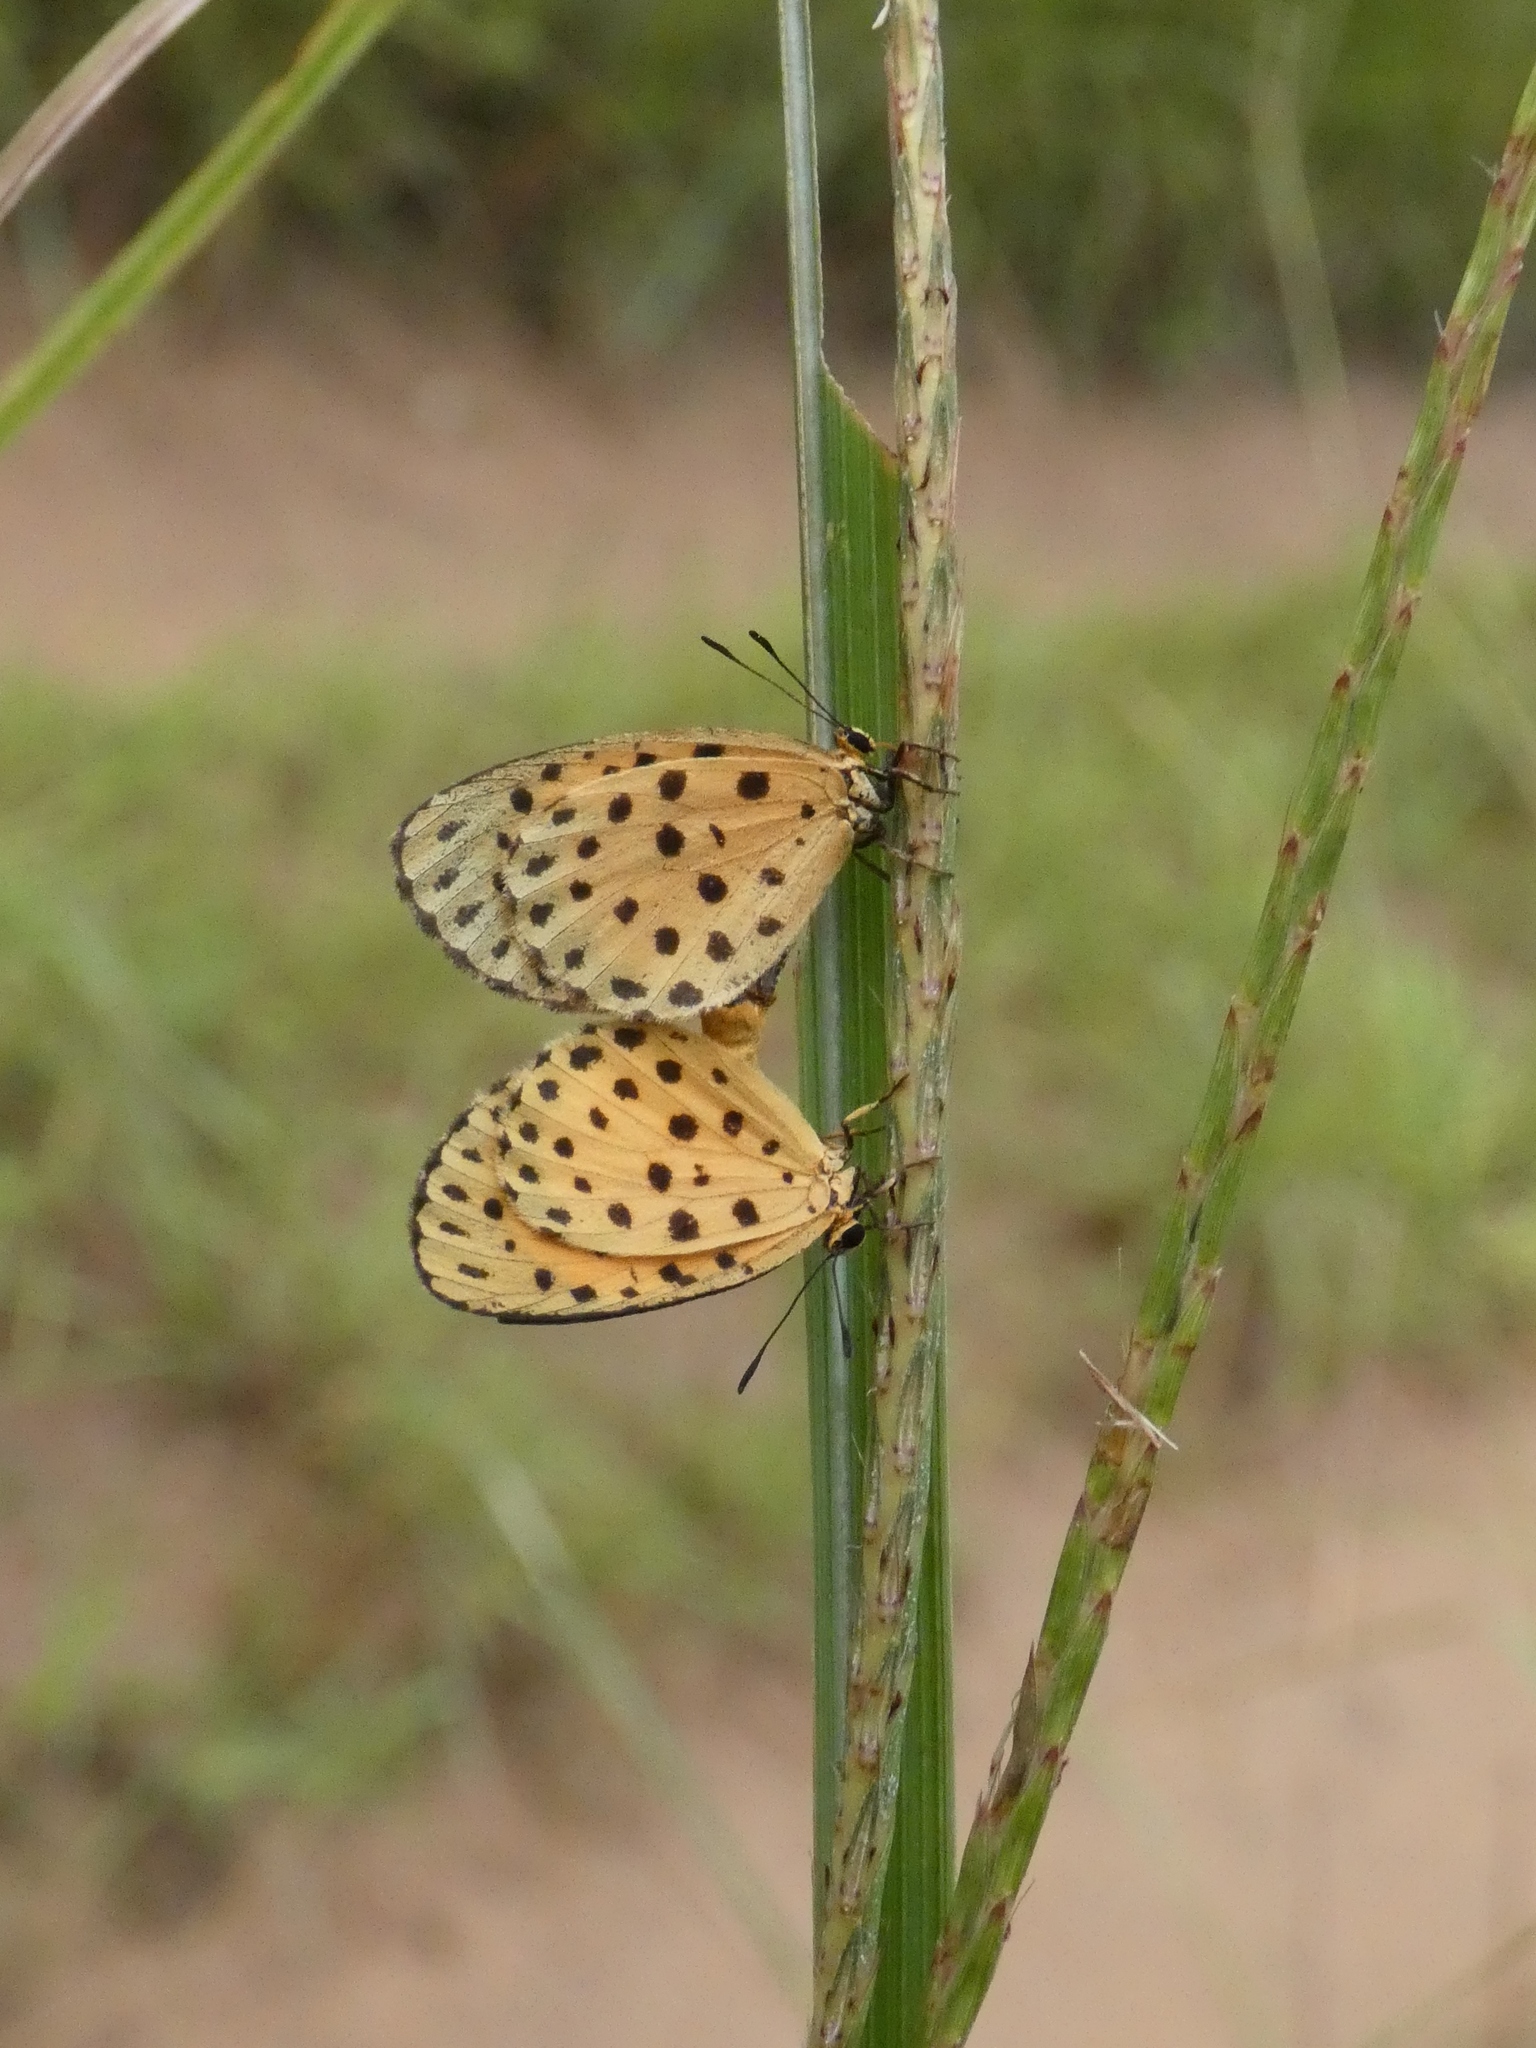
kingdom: Animalia
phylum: Arthropoda
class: Insecta
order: Lepidoptera
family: Lycaenidae
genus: Pentila
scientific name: Pentila pauli
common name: Paul's pentila
